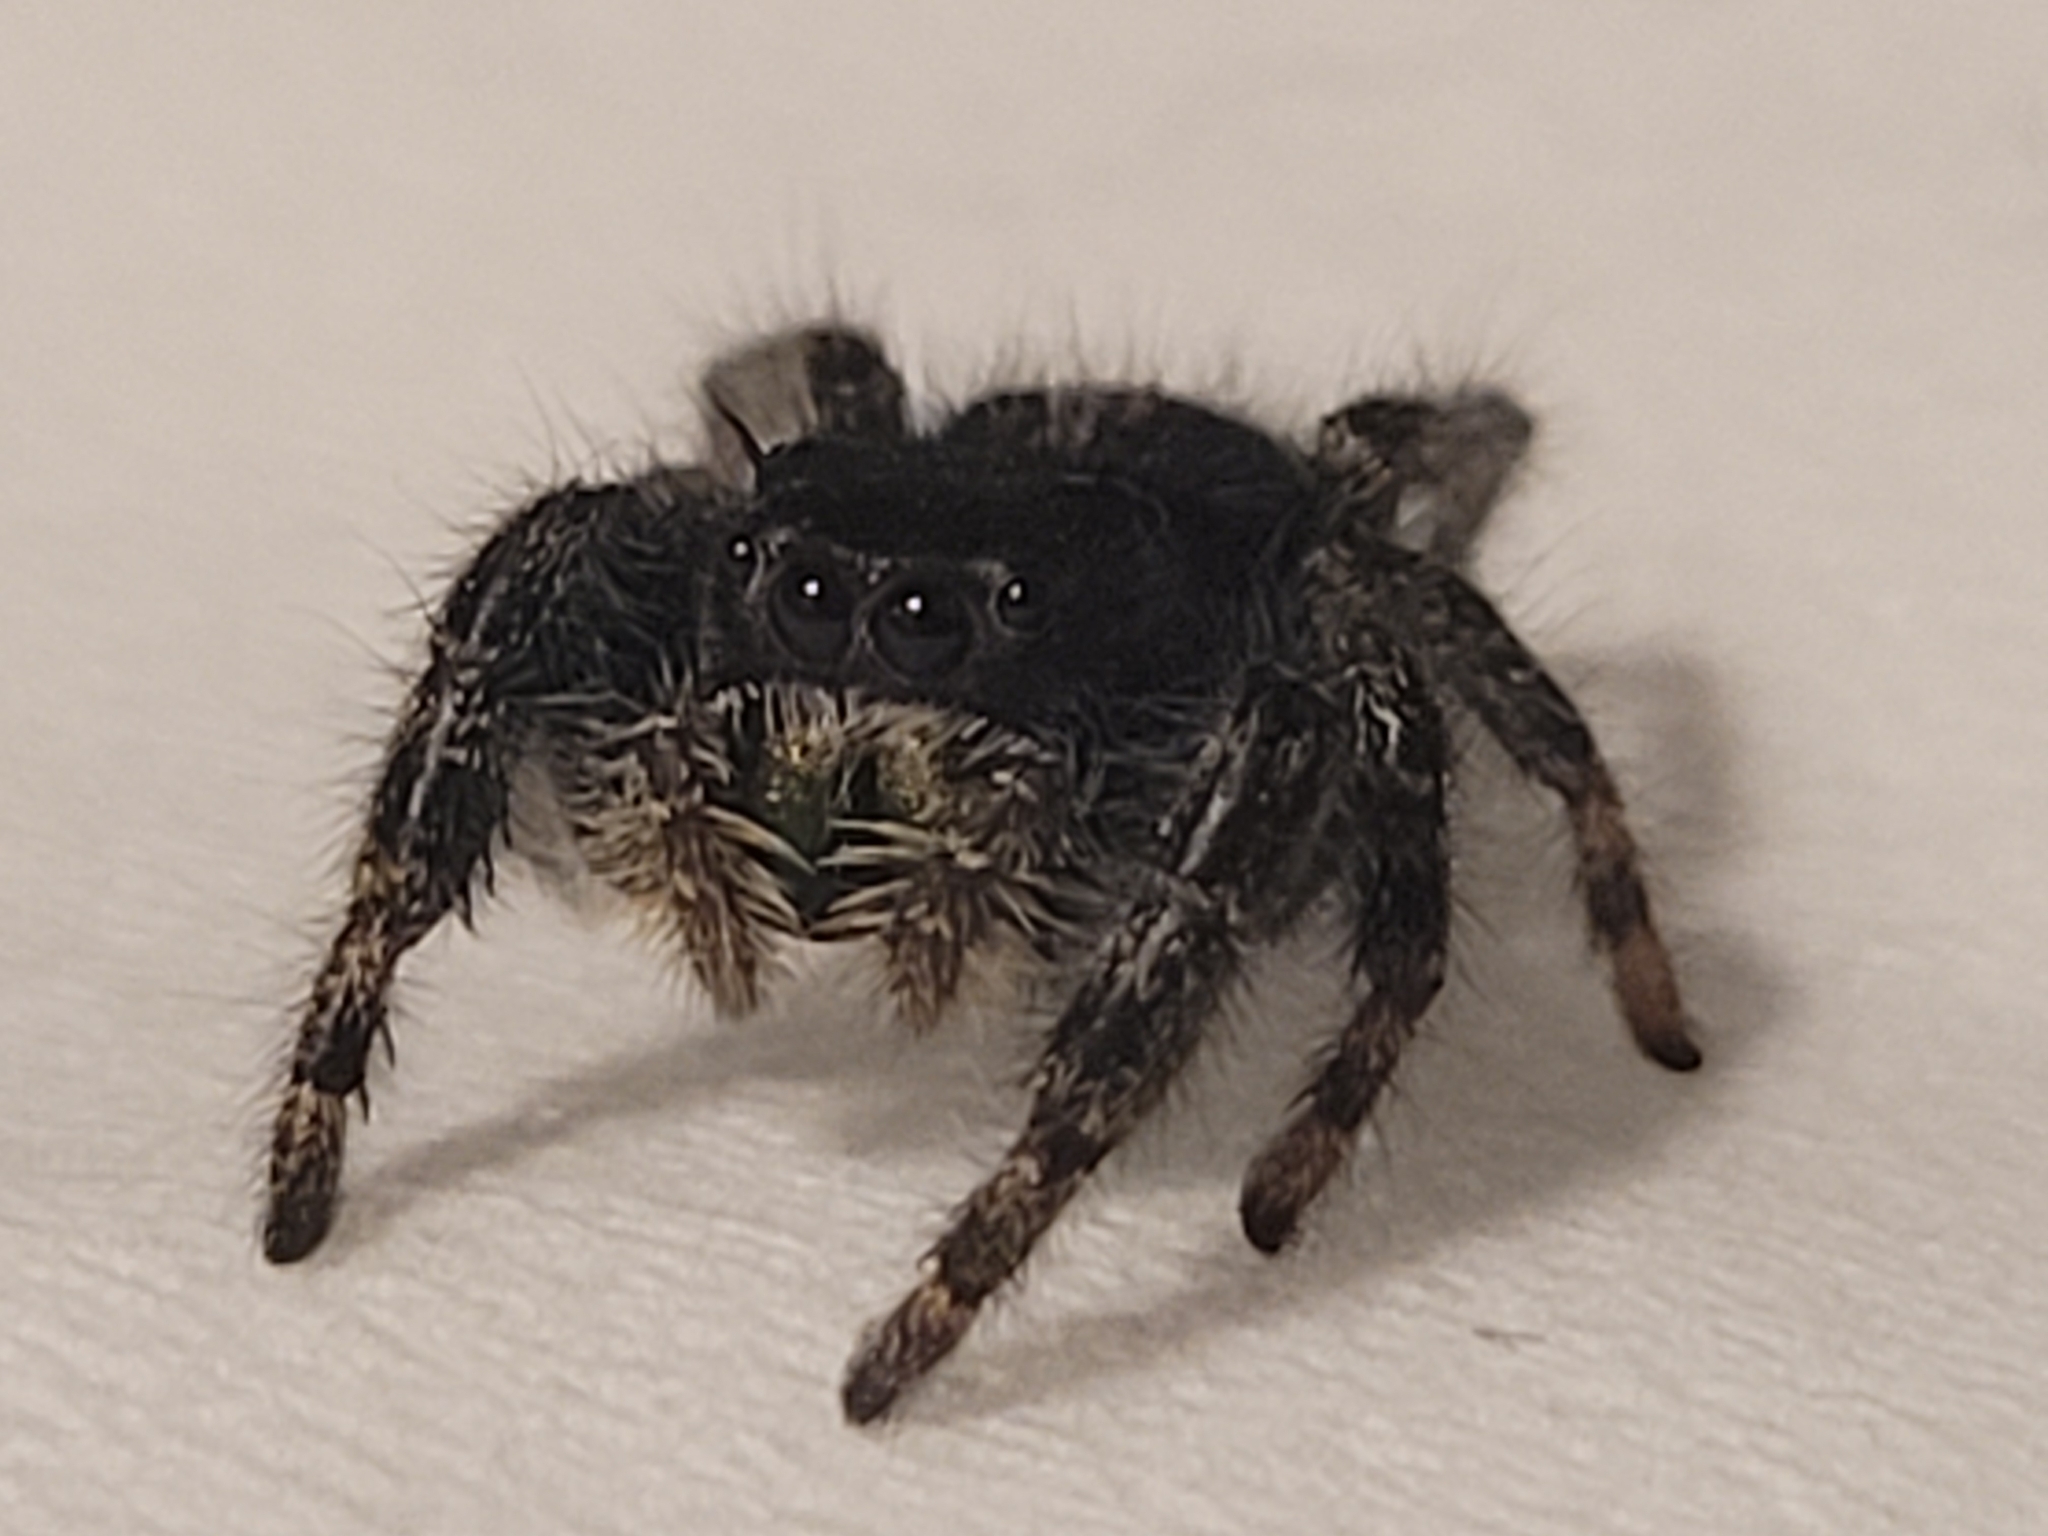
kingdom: Animalia
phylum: Arthropoda
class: Arachnida
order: Araneae
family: Salticidae
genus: Phidippus
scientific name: Phidippus audax
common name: Bold jumper
